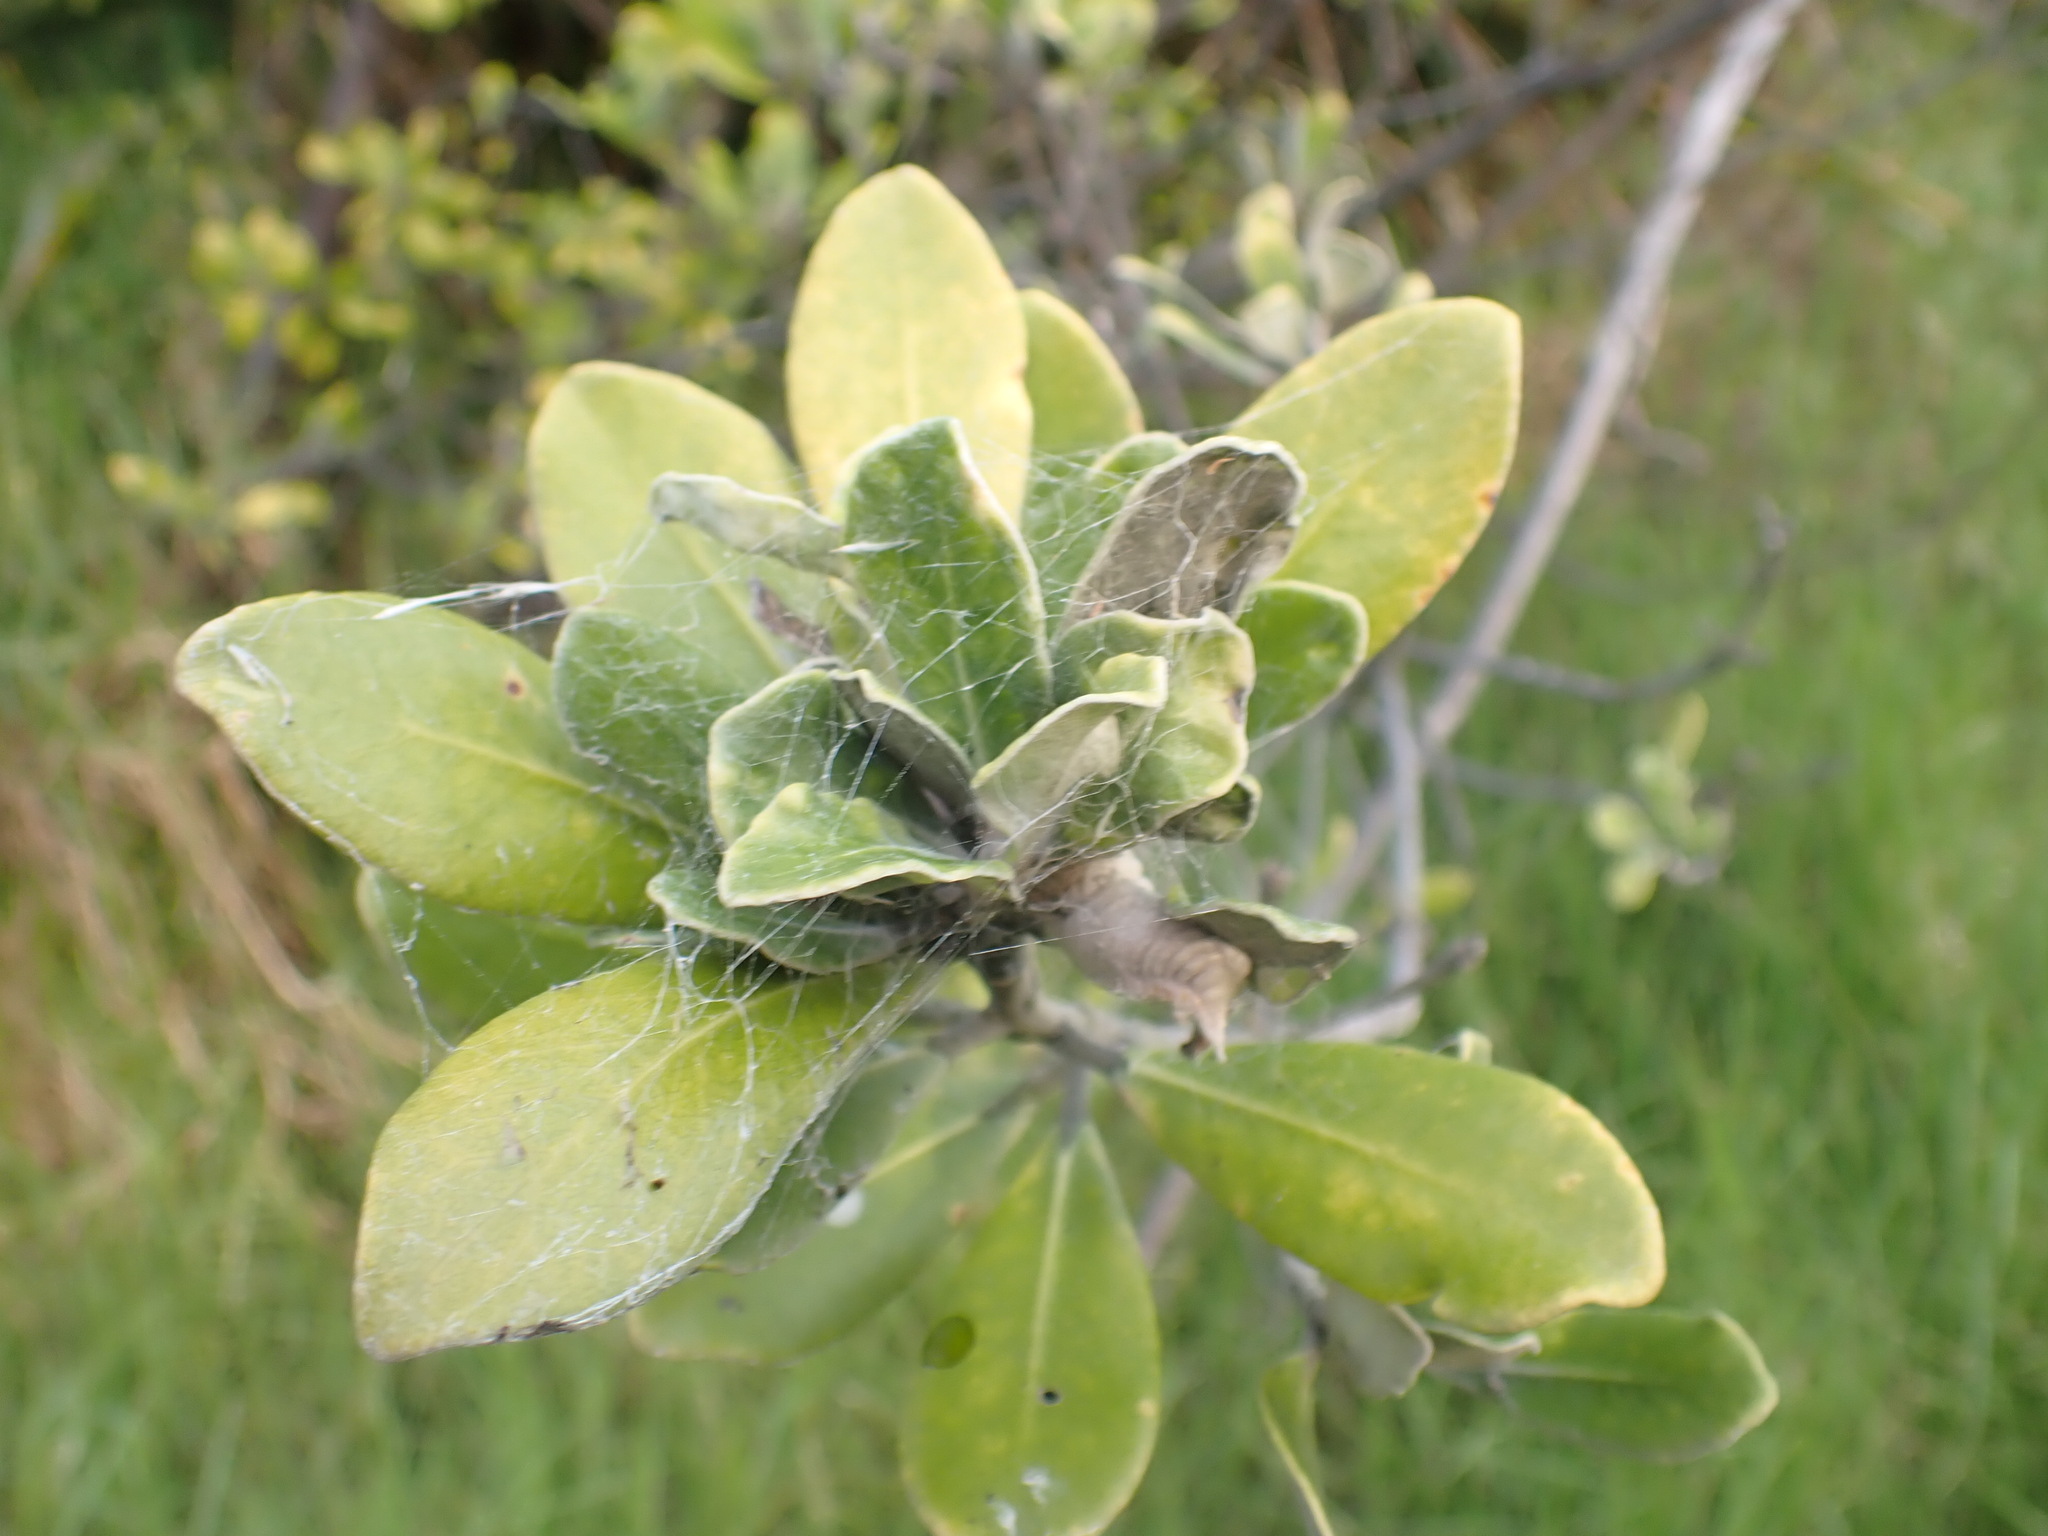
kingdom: Plantae
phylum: Tracheophyta
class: Magnoliopsida
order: Apiales
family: Pittosporaceae
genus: Pittosporum
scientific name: Pittosporum crassifolium
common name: Karo
